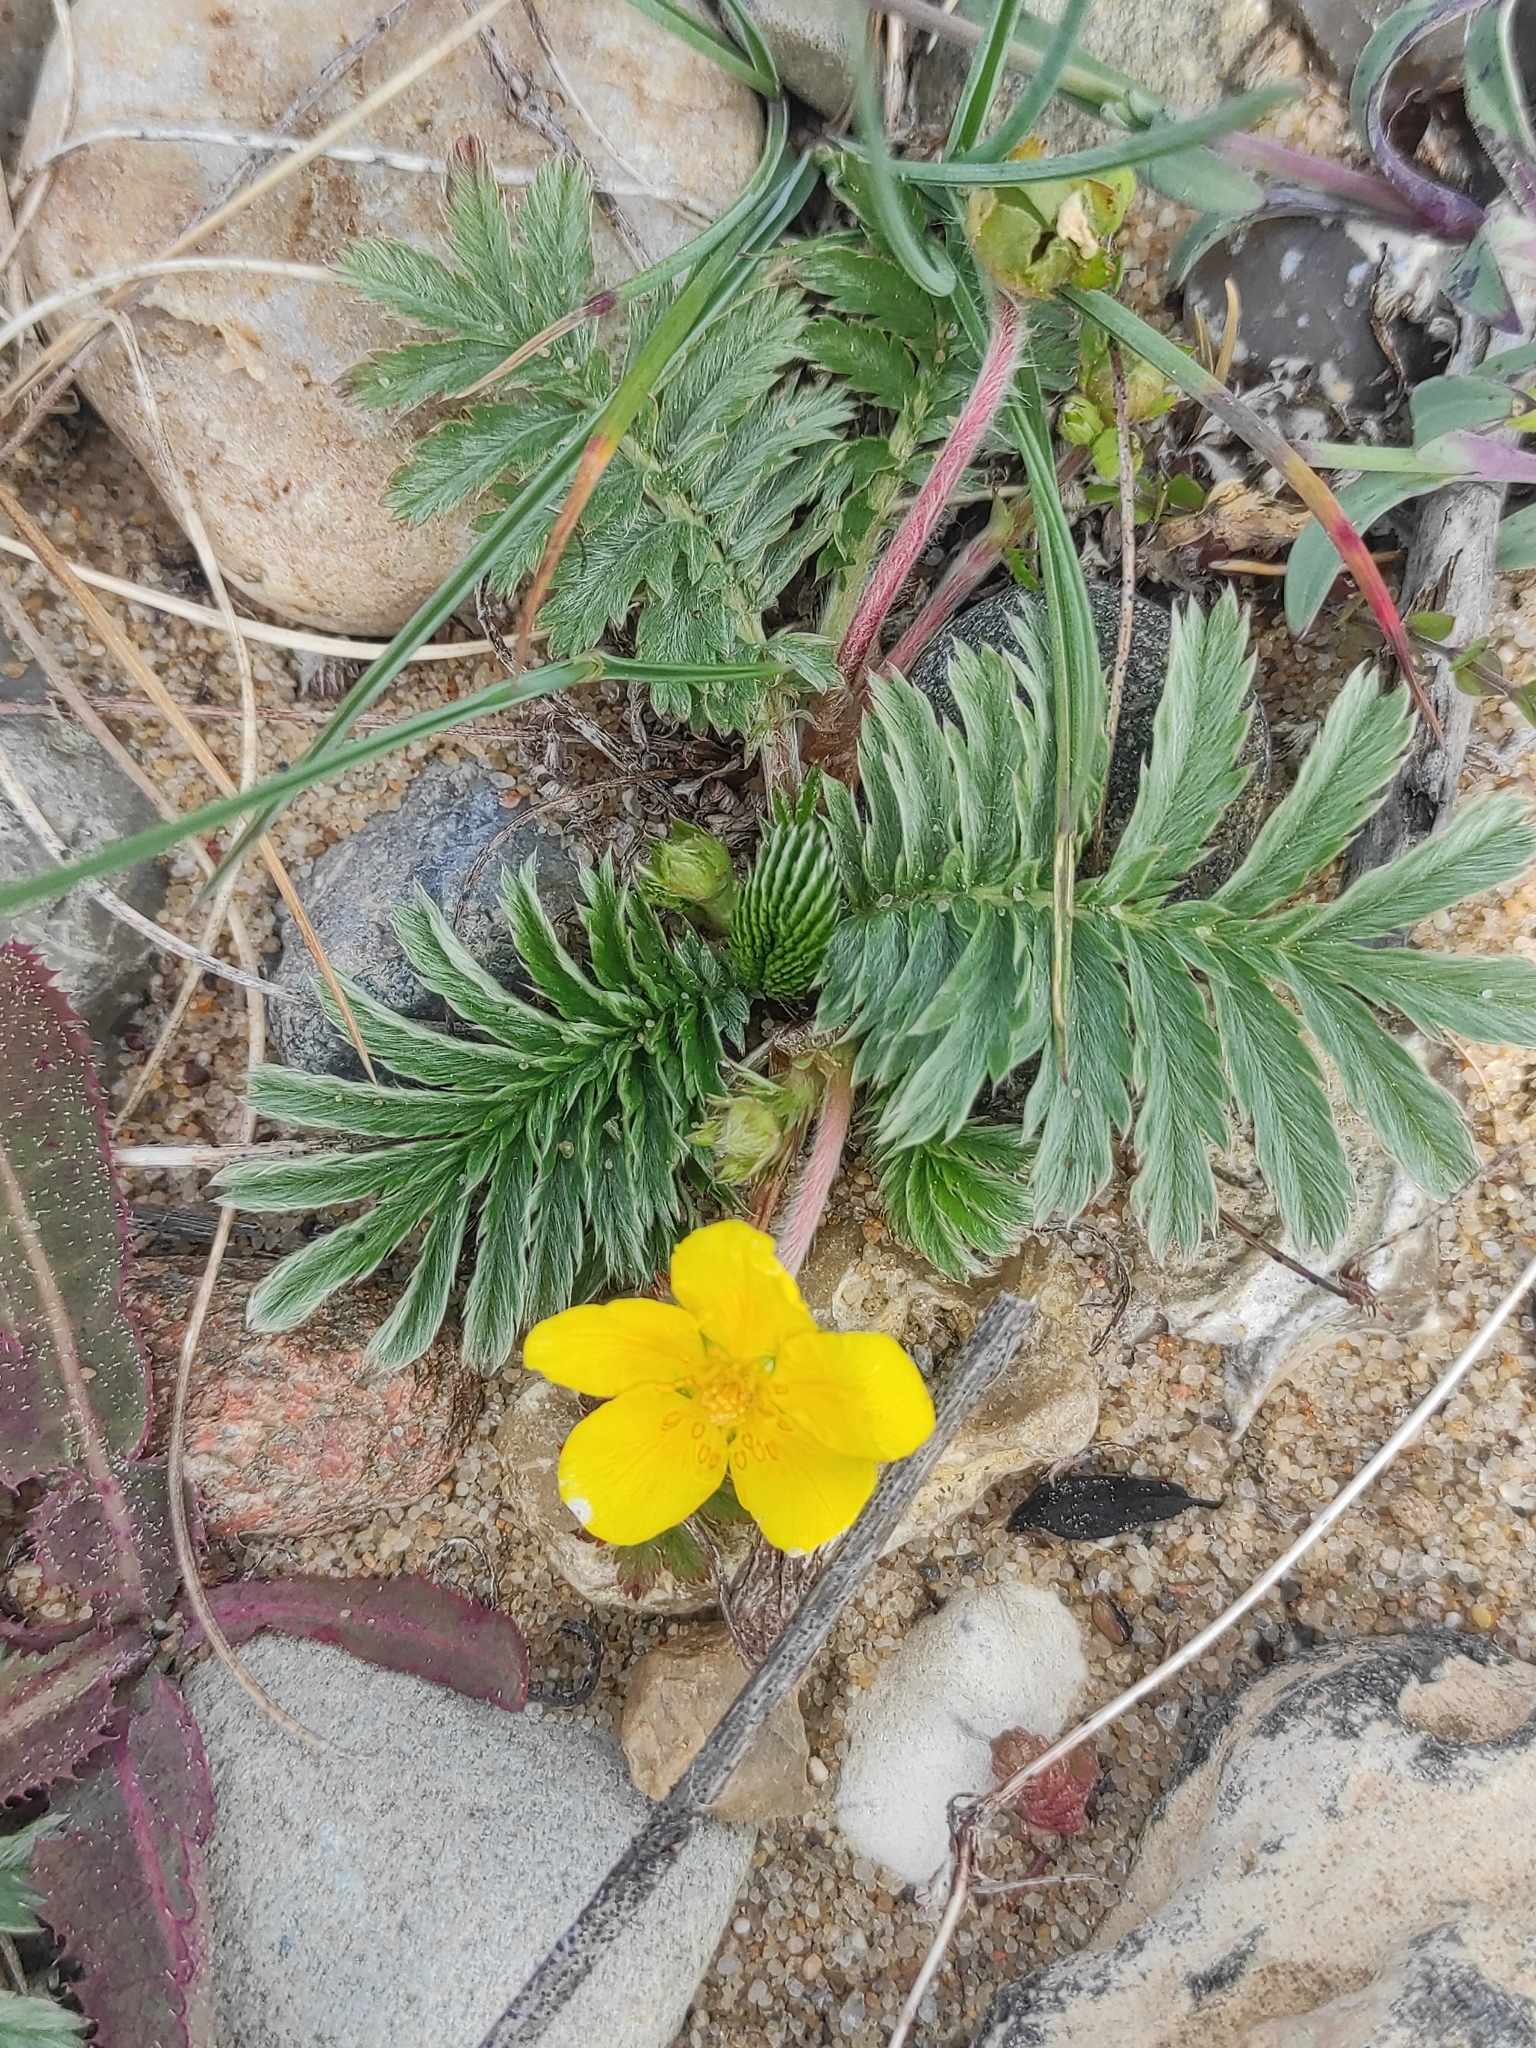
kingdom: Plantae
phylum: Tracheophyta
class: Magnoliopsida
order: Rosales
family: Rosaceae
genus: Argentina
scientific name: Argentina anserina
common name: Common silverweed
